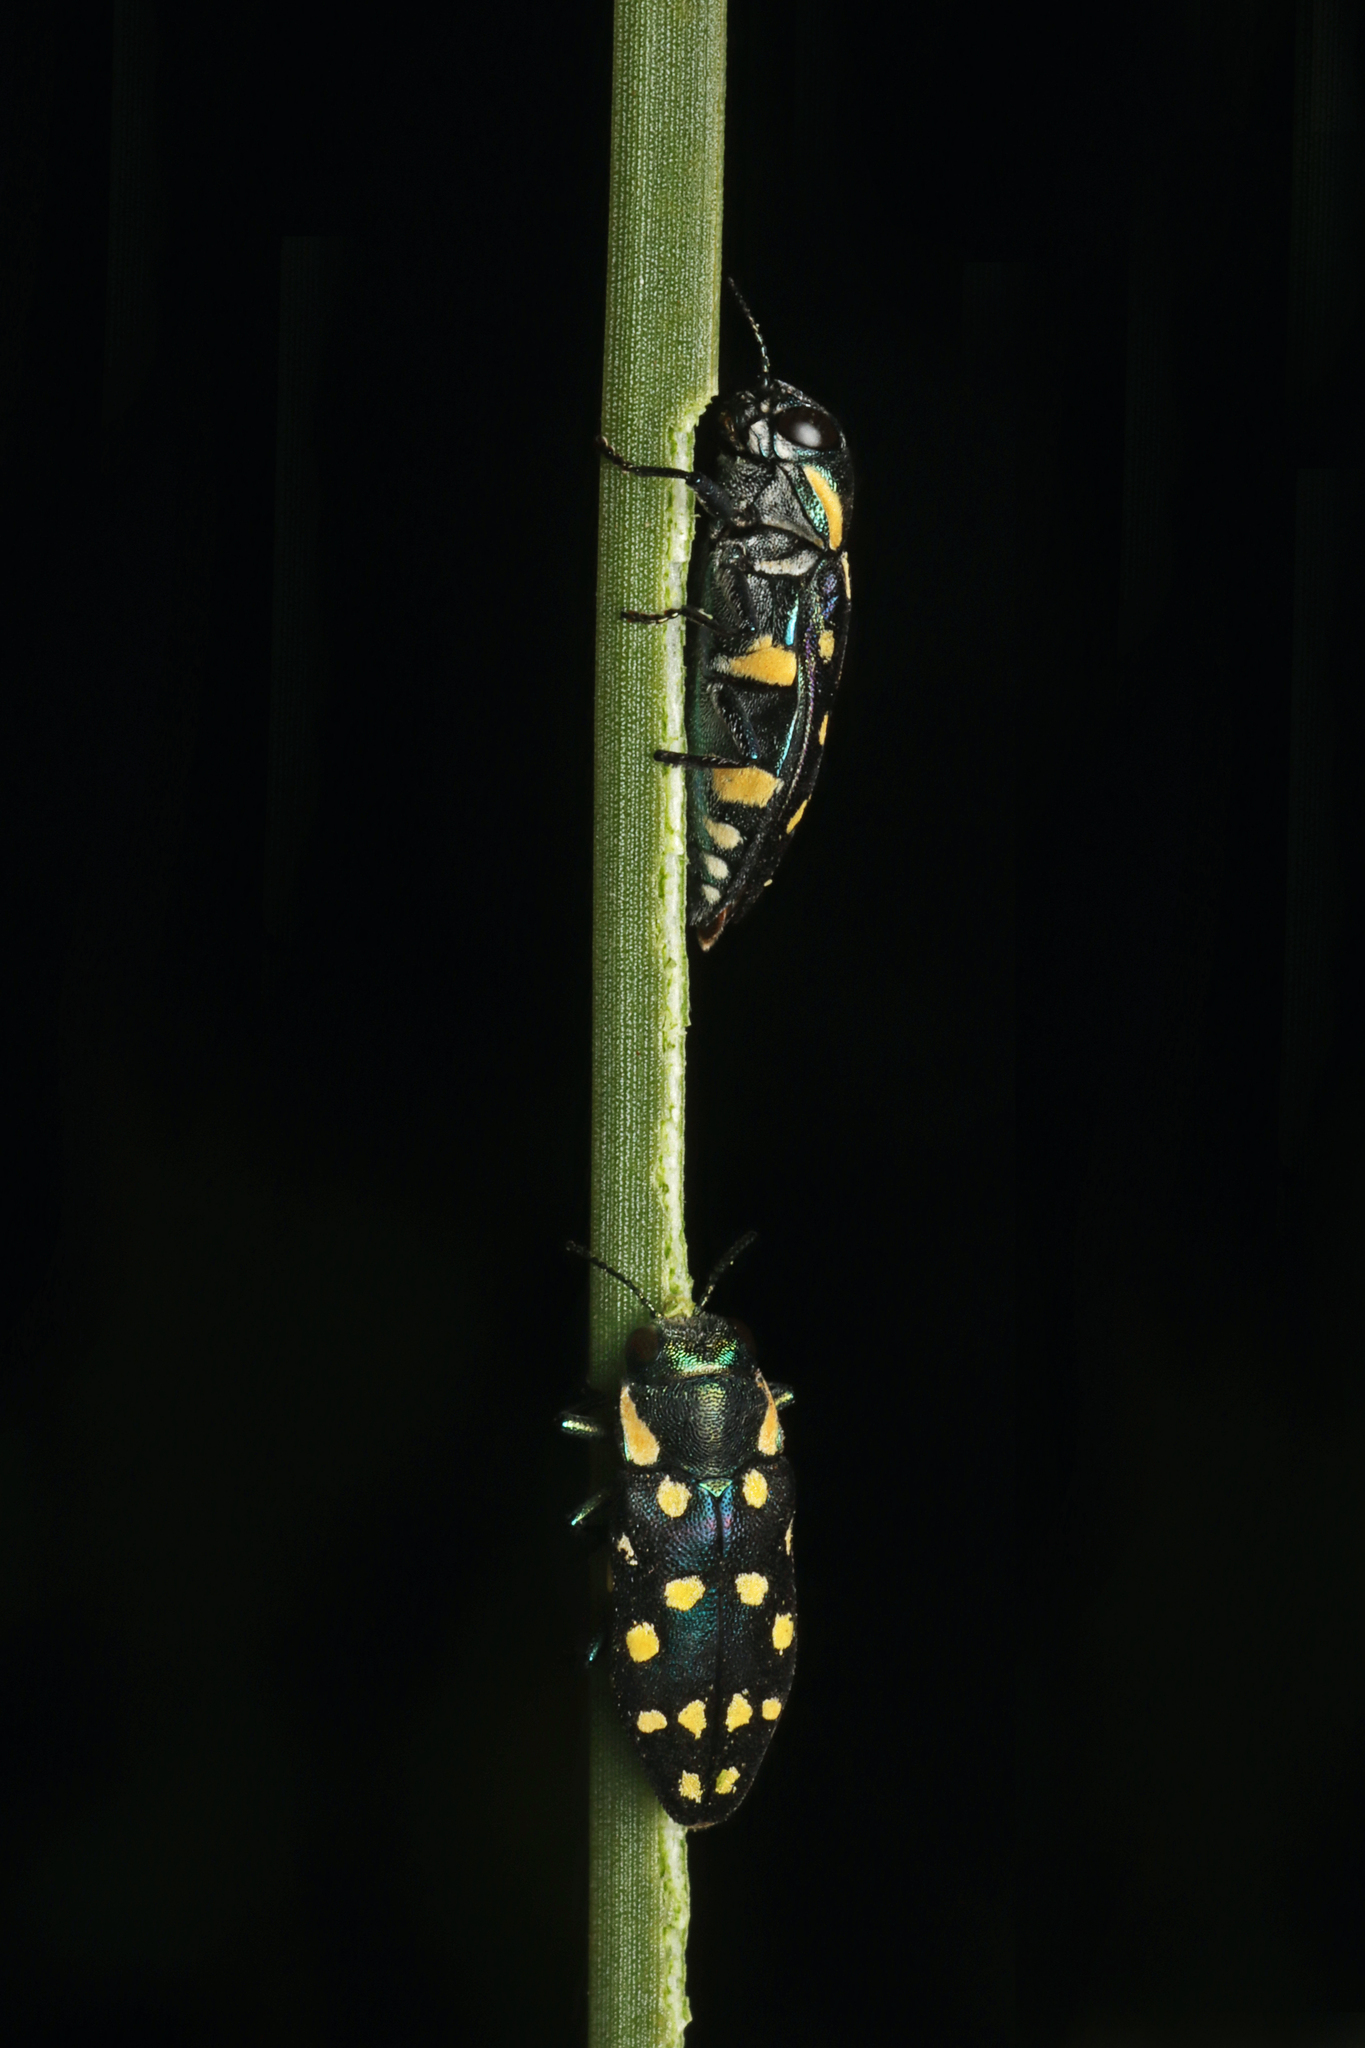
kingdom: Animalia
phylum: Arthropoda
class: Insecta
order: Coleoptera
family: Buprestidae
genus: Diphucrania
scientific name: Diphucrania duodecimmaculata
